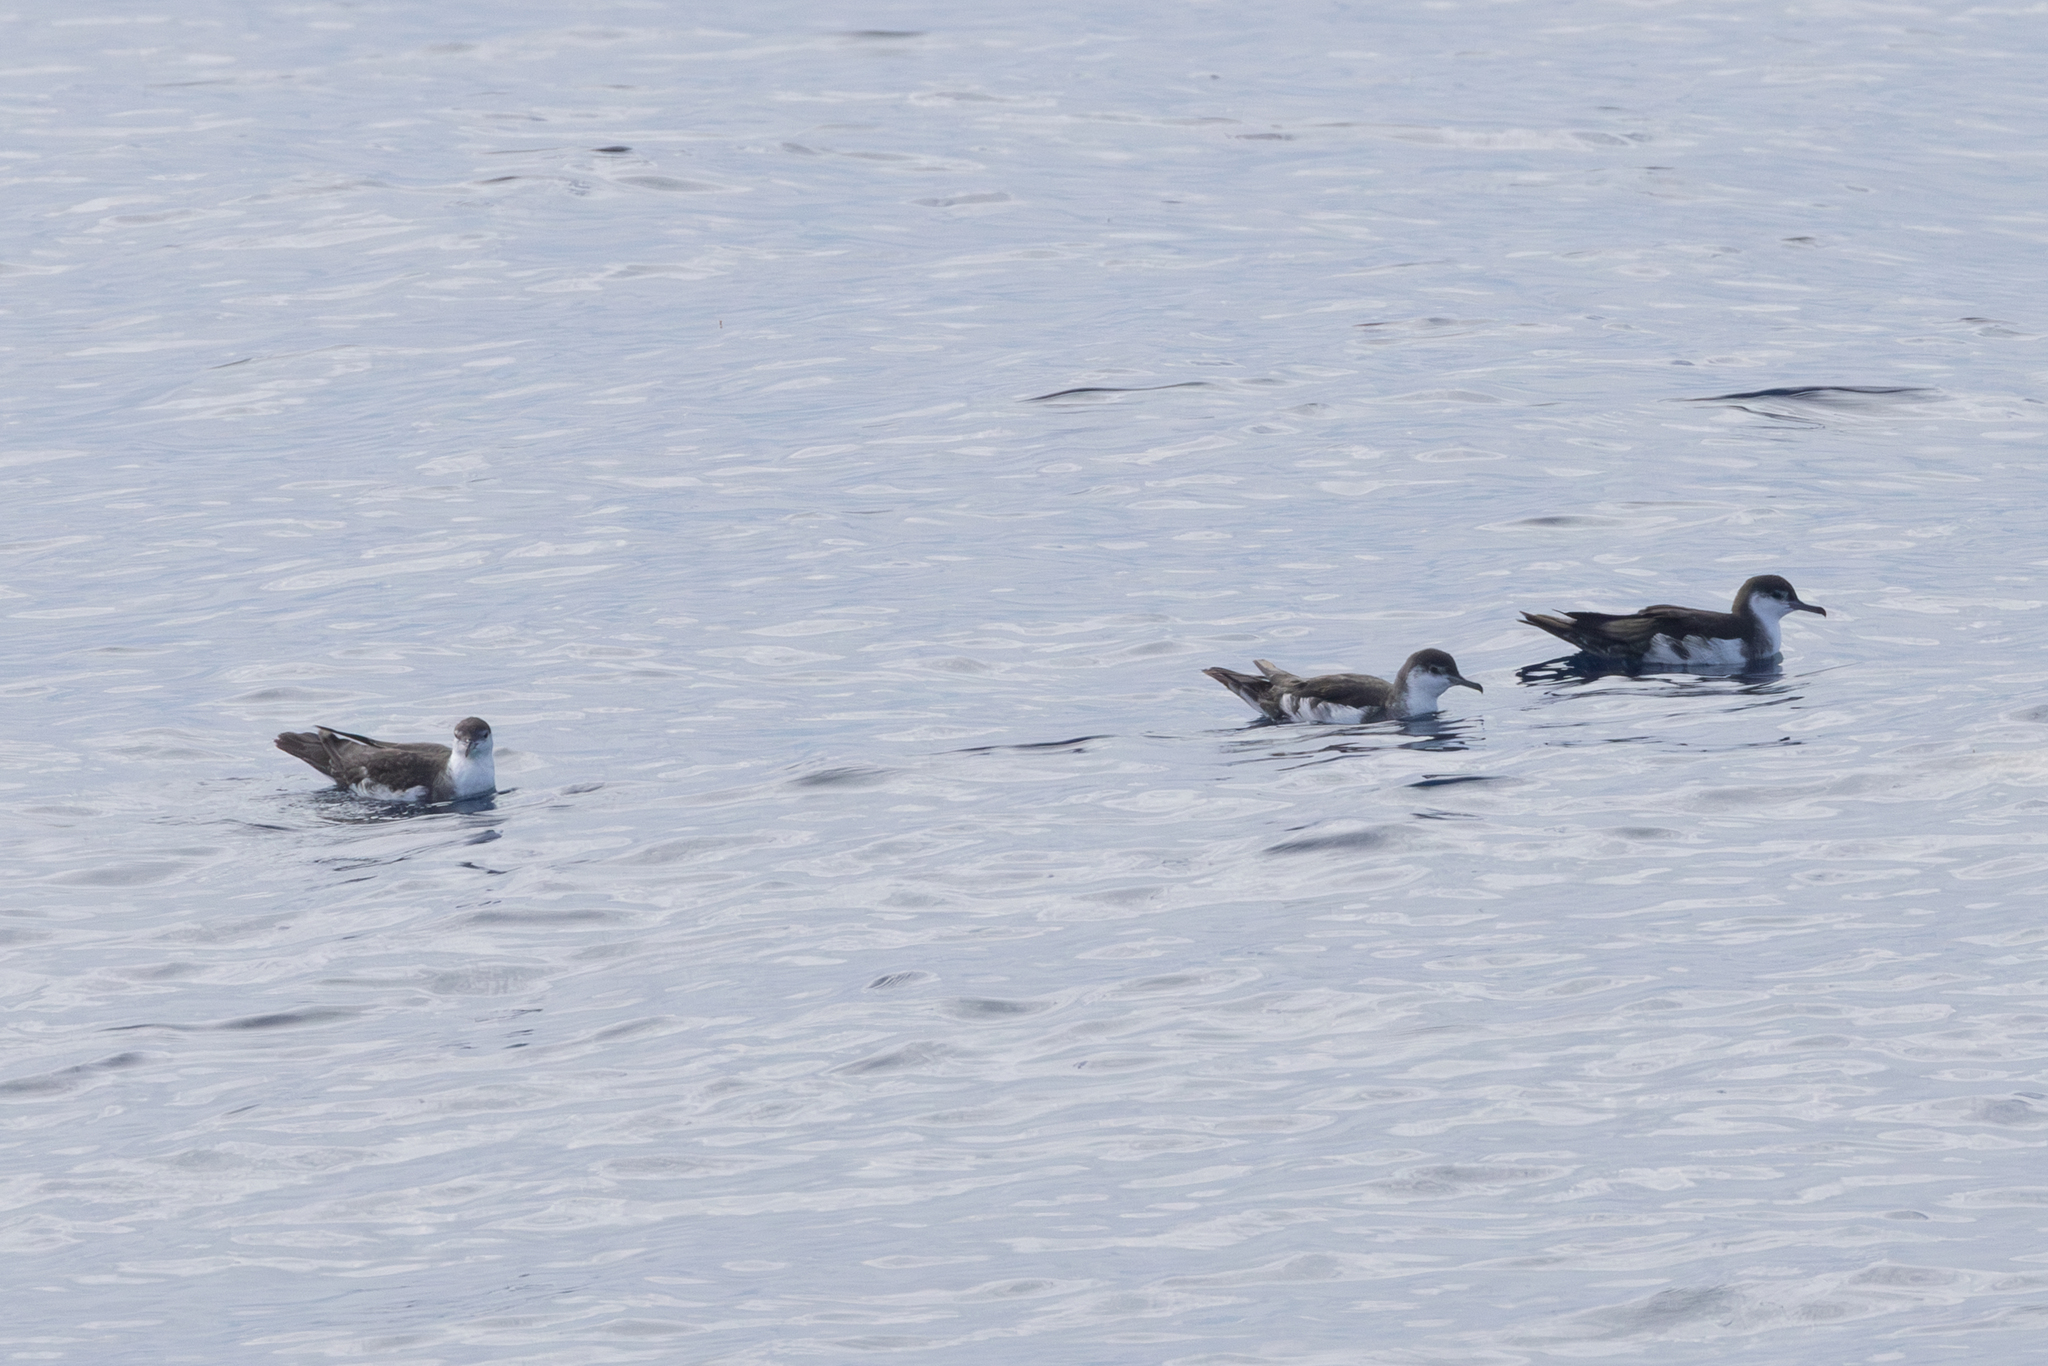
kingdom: Animalia
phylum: Chordata
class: Aves
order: Procellariiformes
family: Procellariidae
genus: Puffinus
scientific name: Puffinus lherminieri
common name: Audubon's shearwater
